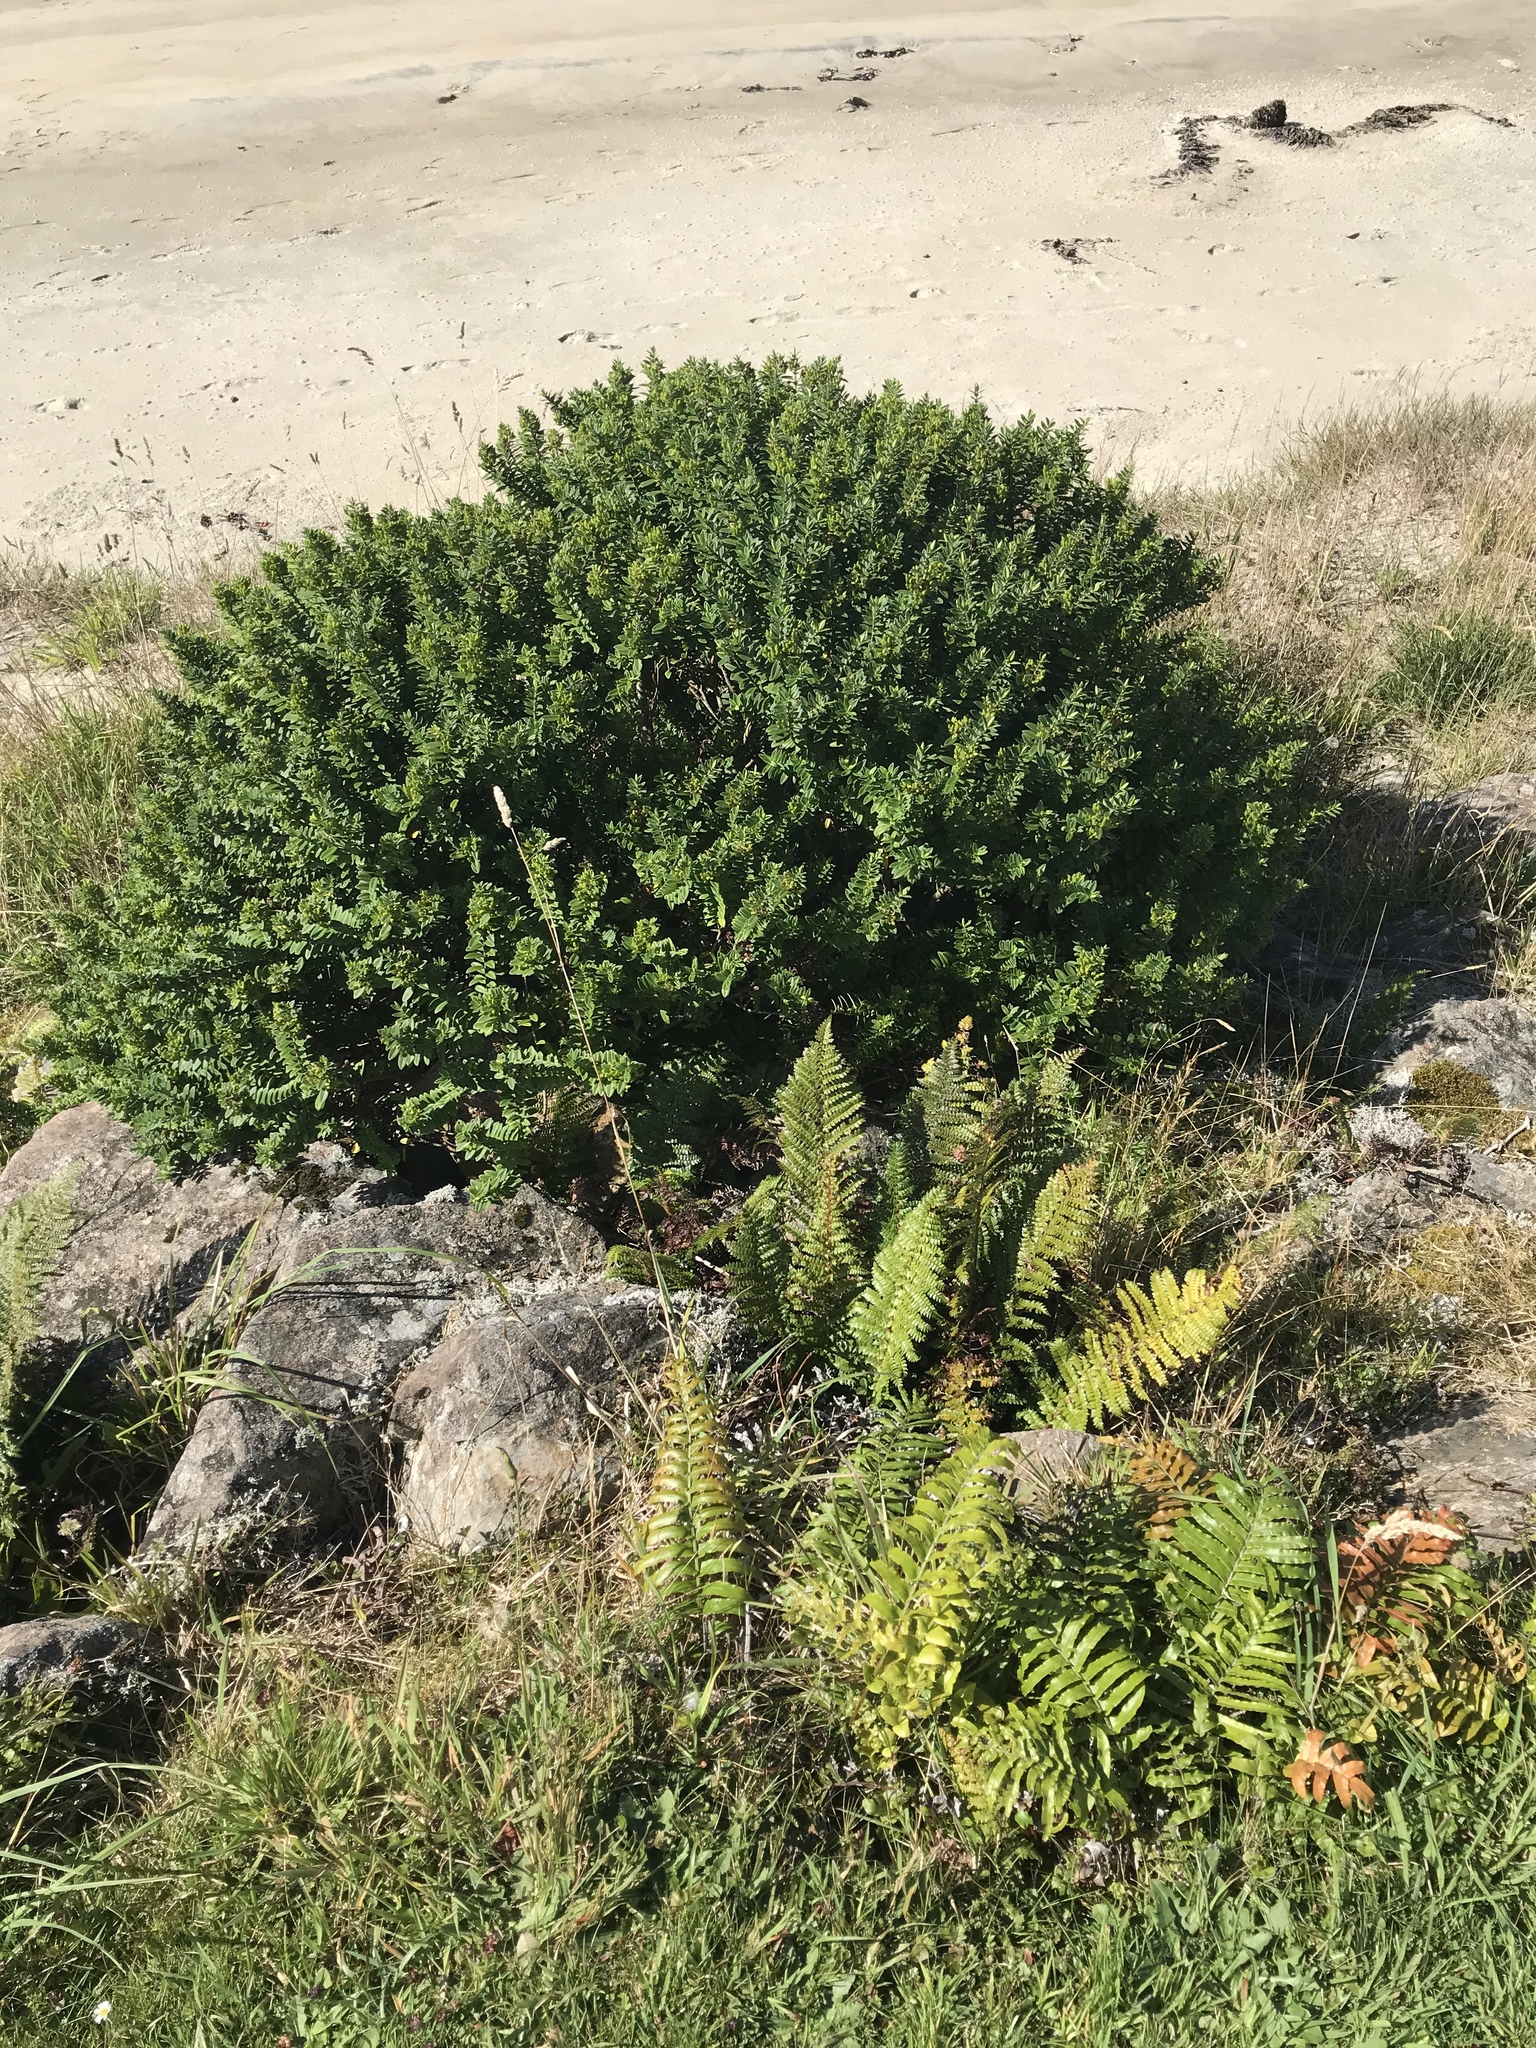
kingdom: Plantae
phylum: Tracheophyta
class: Magnoliopsida
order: Lamiales
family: Plantaginaceae
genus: Veronica
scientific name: Veronica elliptica
